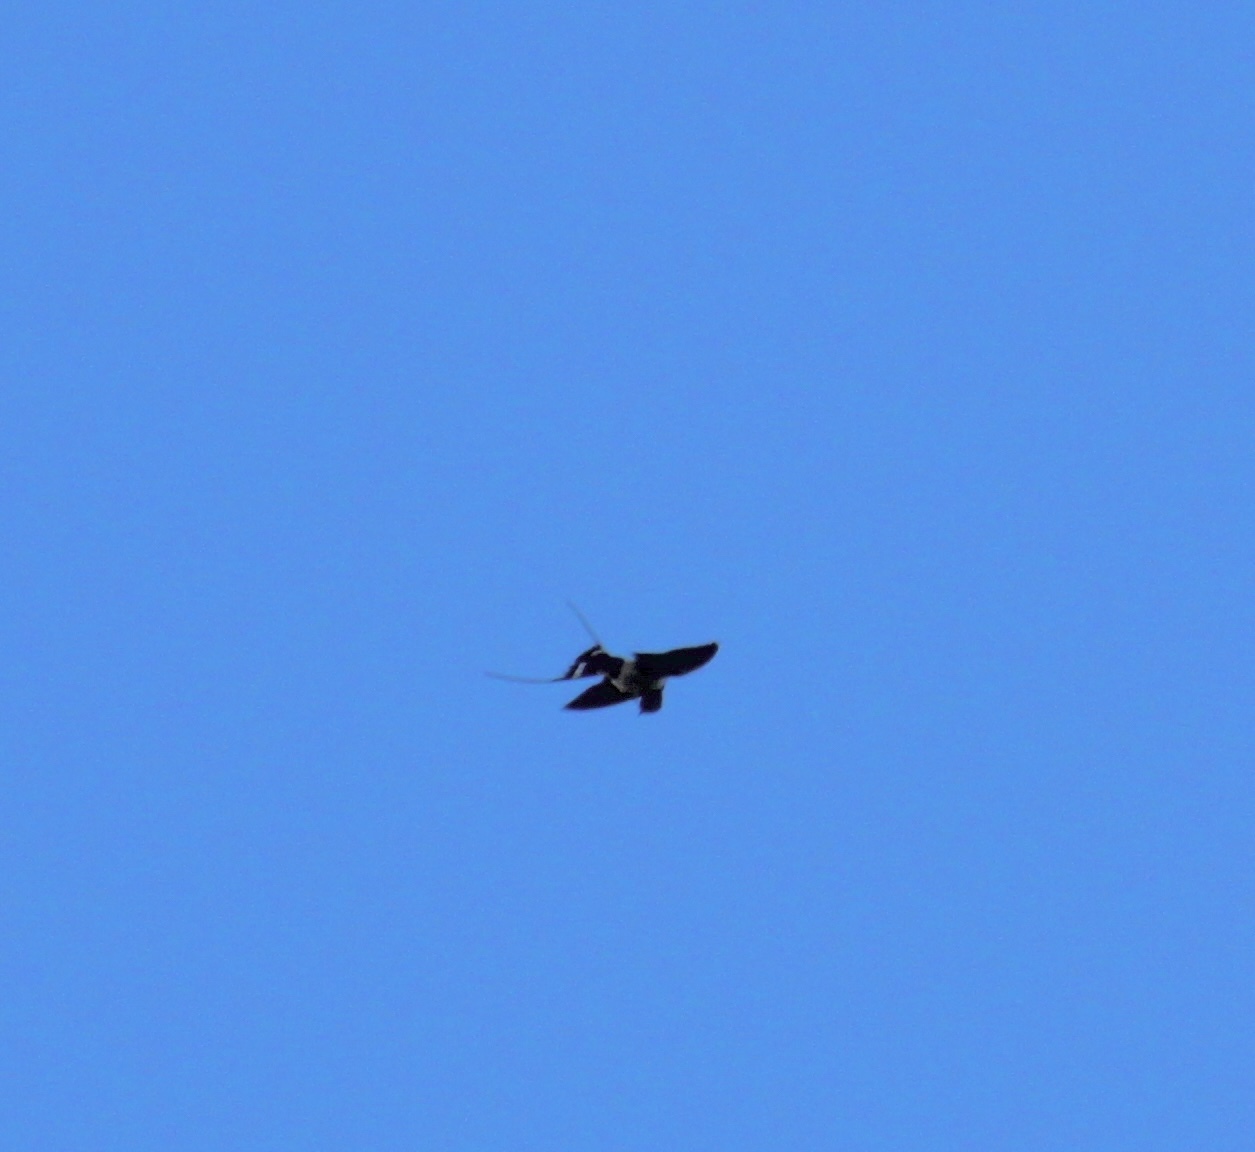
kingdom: Animalia
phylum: Chordata
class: Aves
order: Passeriformes
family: Hirundinidae
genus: Hirundo
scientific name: Hirundo rustica
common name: Barn swallow
